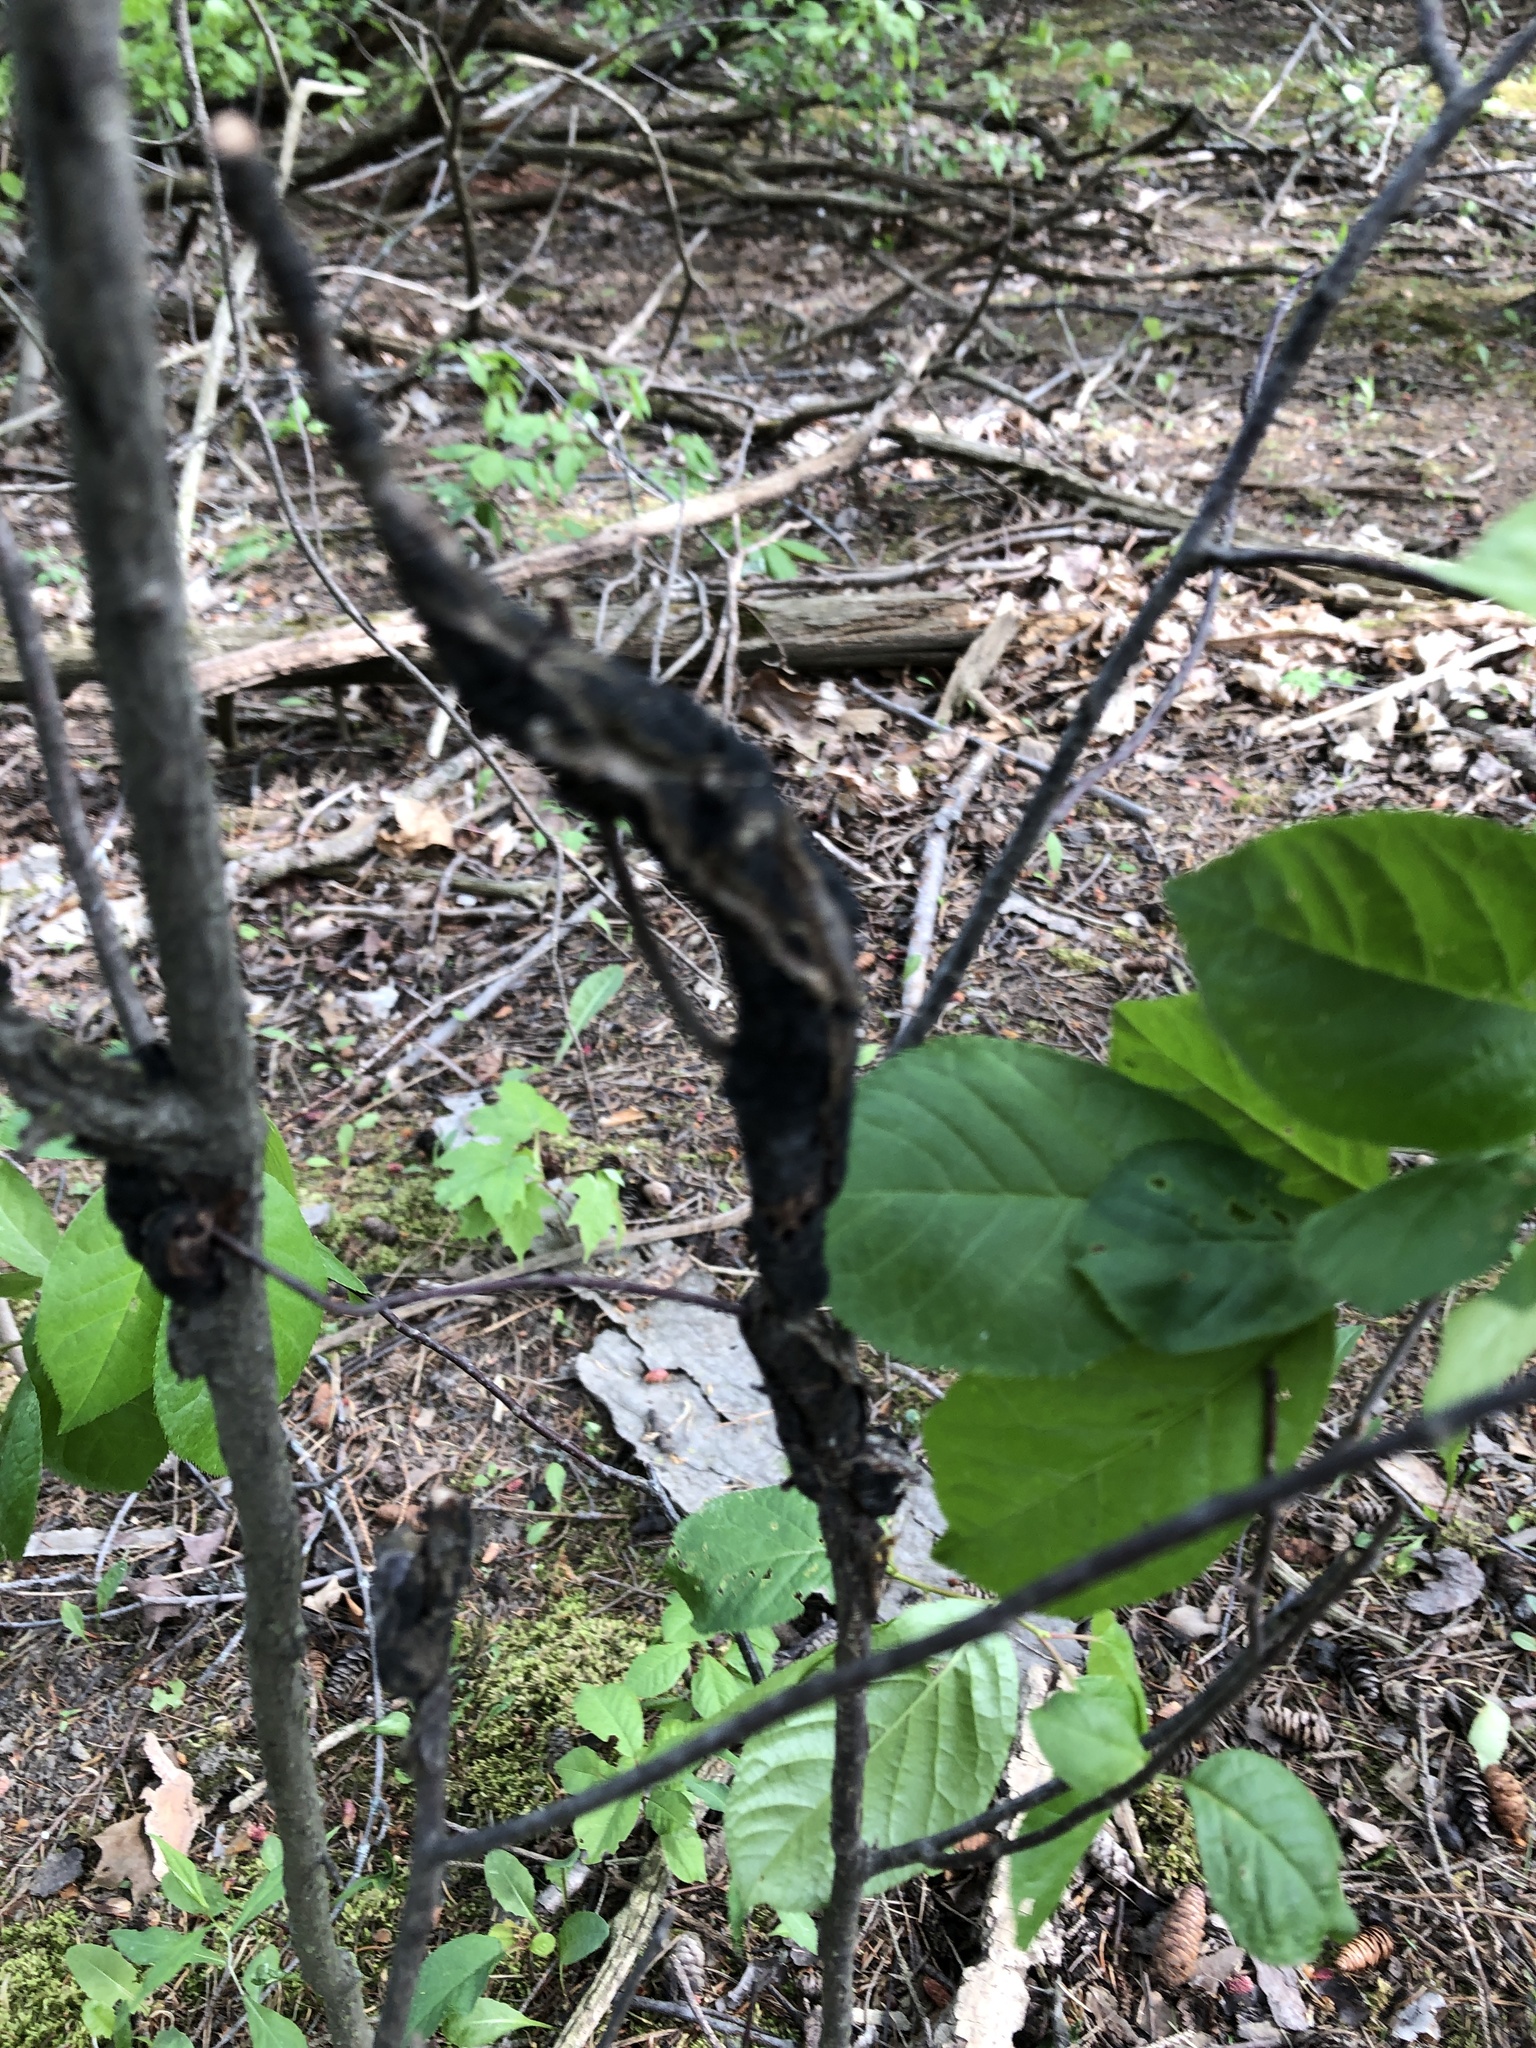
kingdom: Fungi
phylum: Ascomycota
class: Dothideomycetes
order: Venturiales
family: Venturiaceae
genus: Apiosporina
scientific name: Apiosporina morbosa
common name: Black knot
